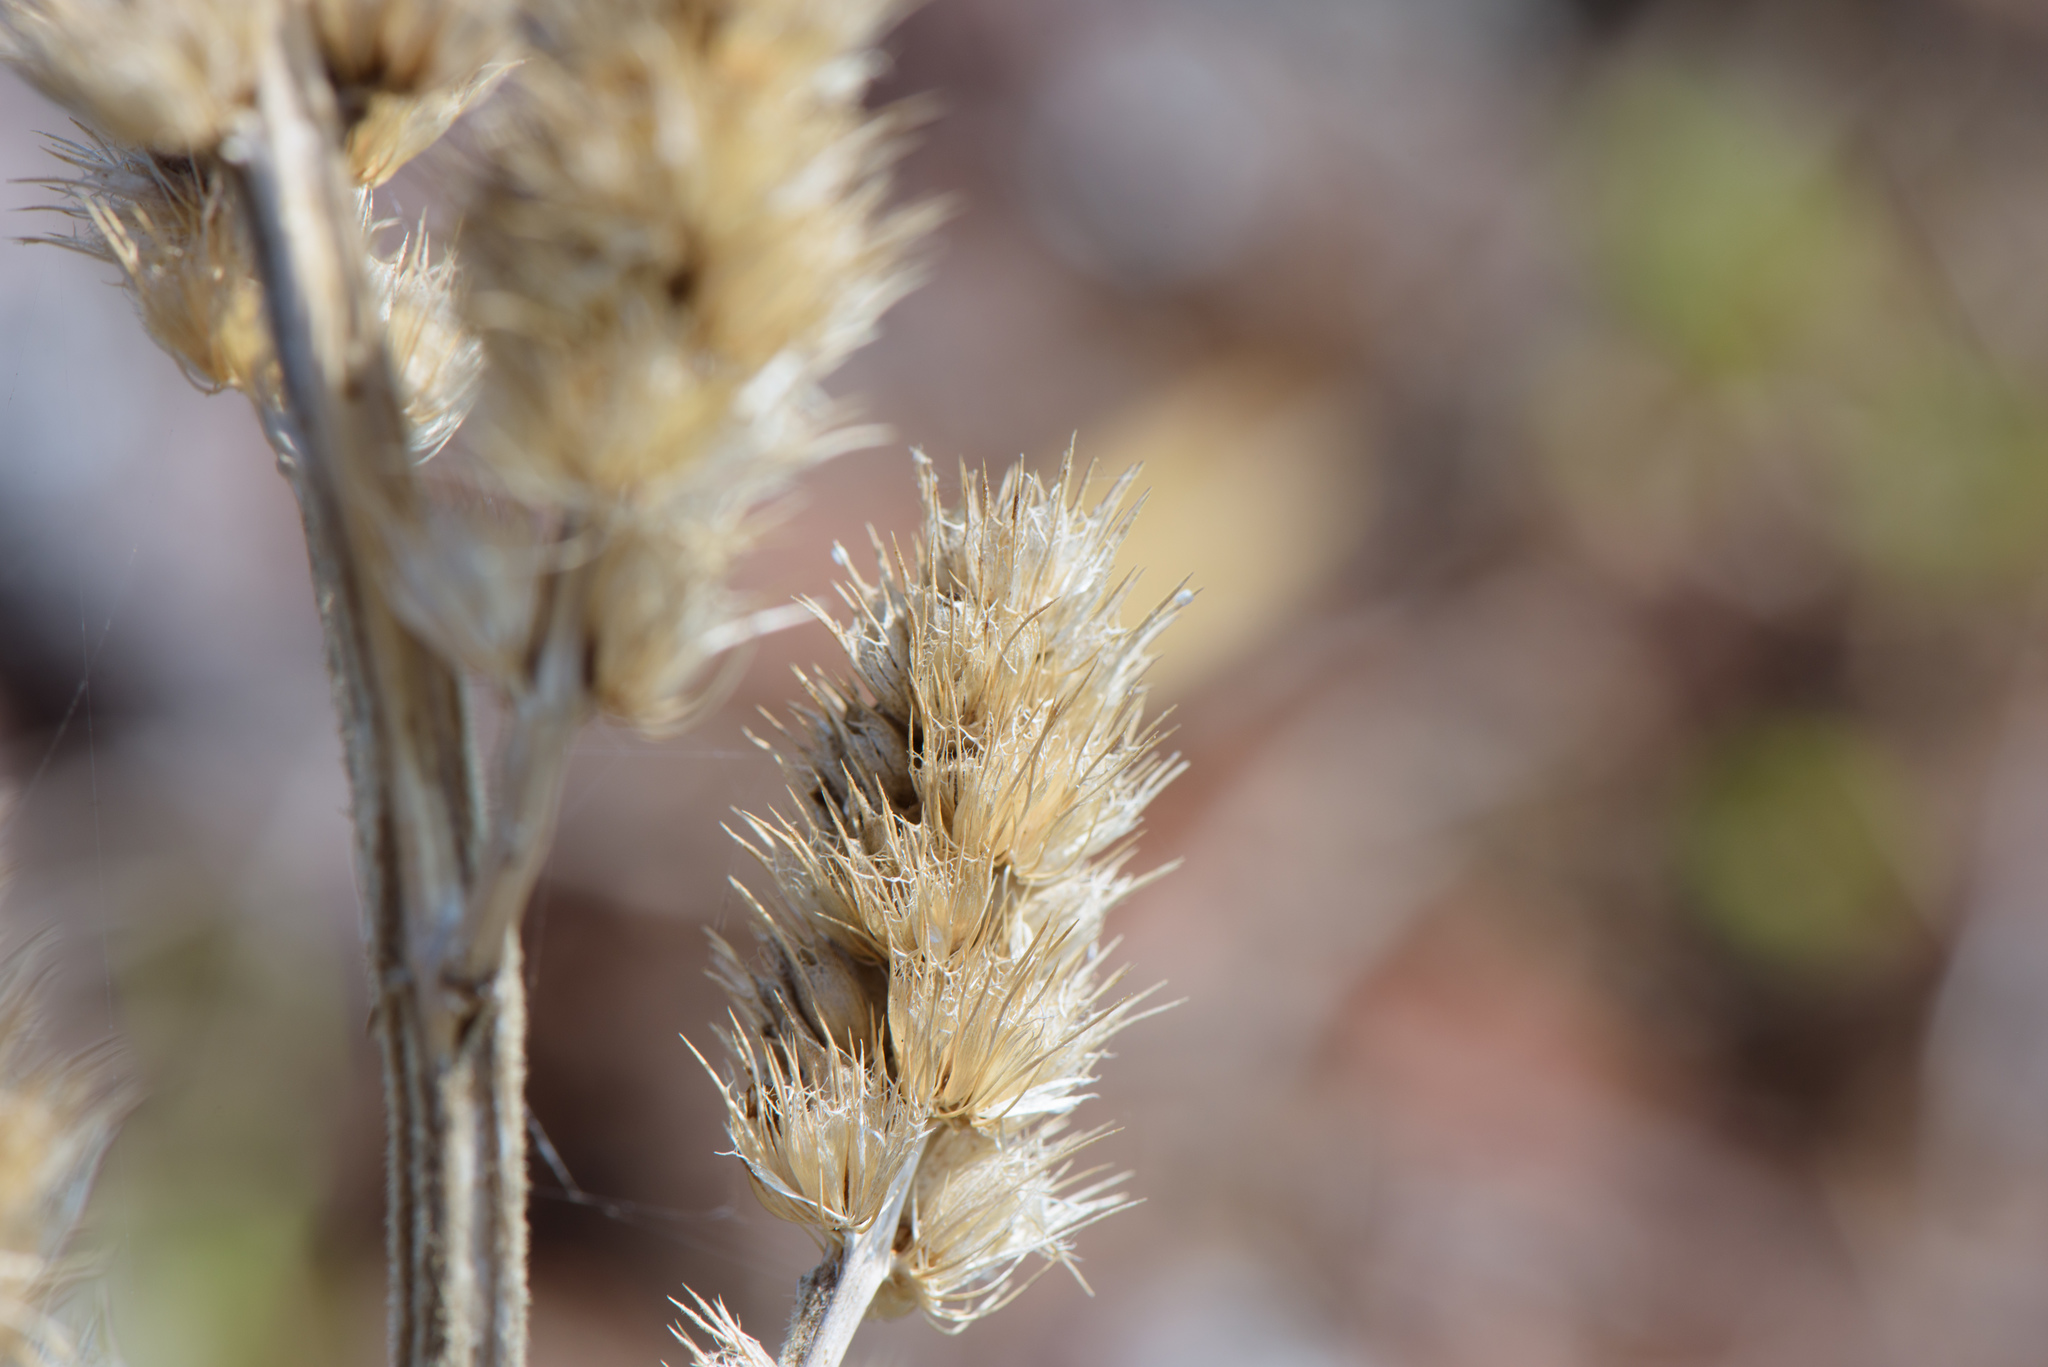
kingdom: Plantae
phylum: Tracheophyta
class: Magnoliopsida
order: Lamiales
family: Lamiaceae
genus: Leonurus
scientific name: Leonurus japonicus
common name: Honeyweed
